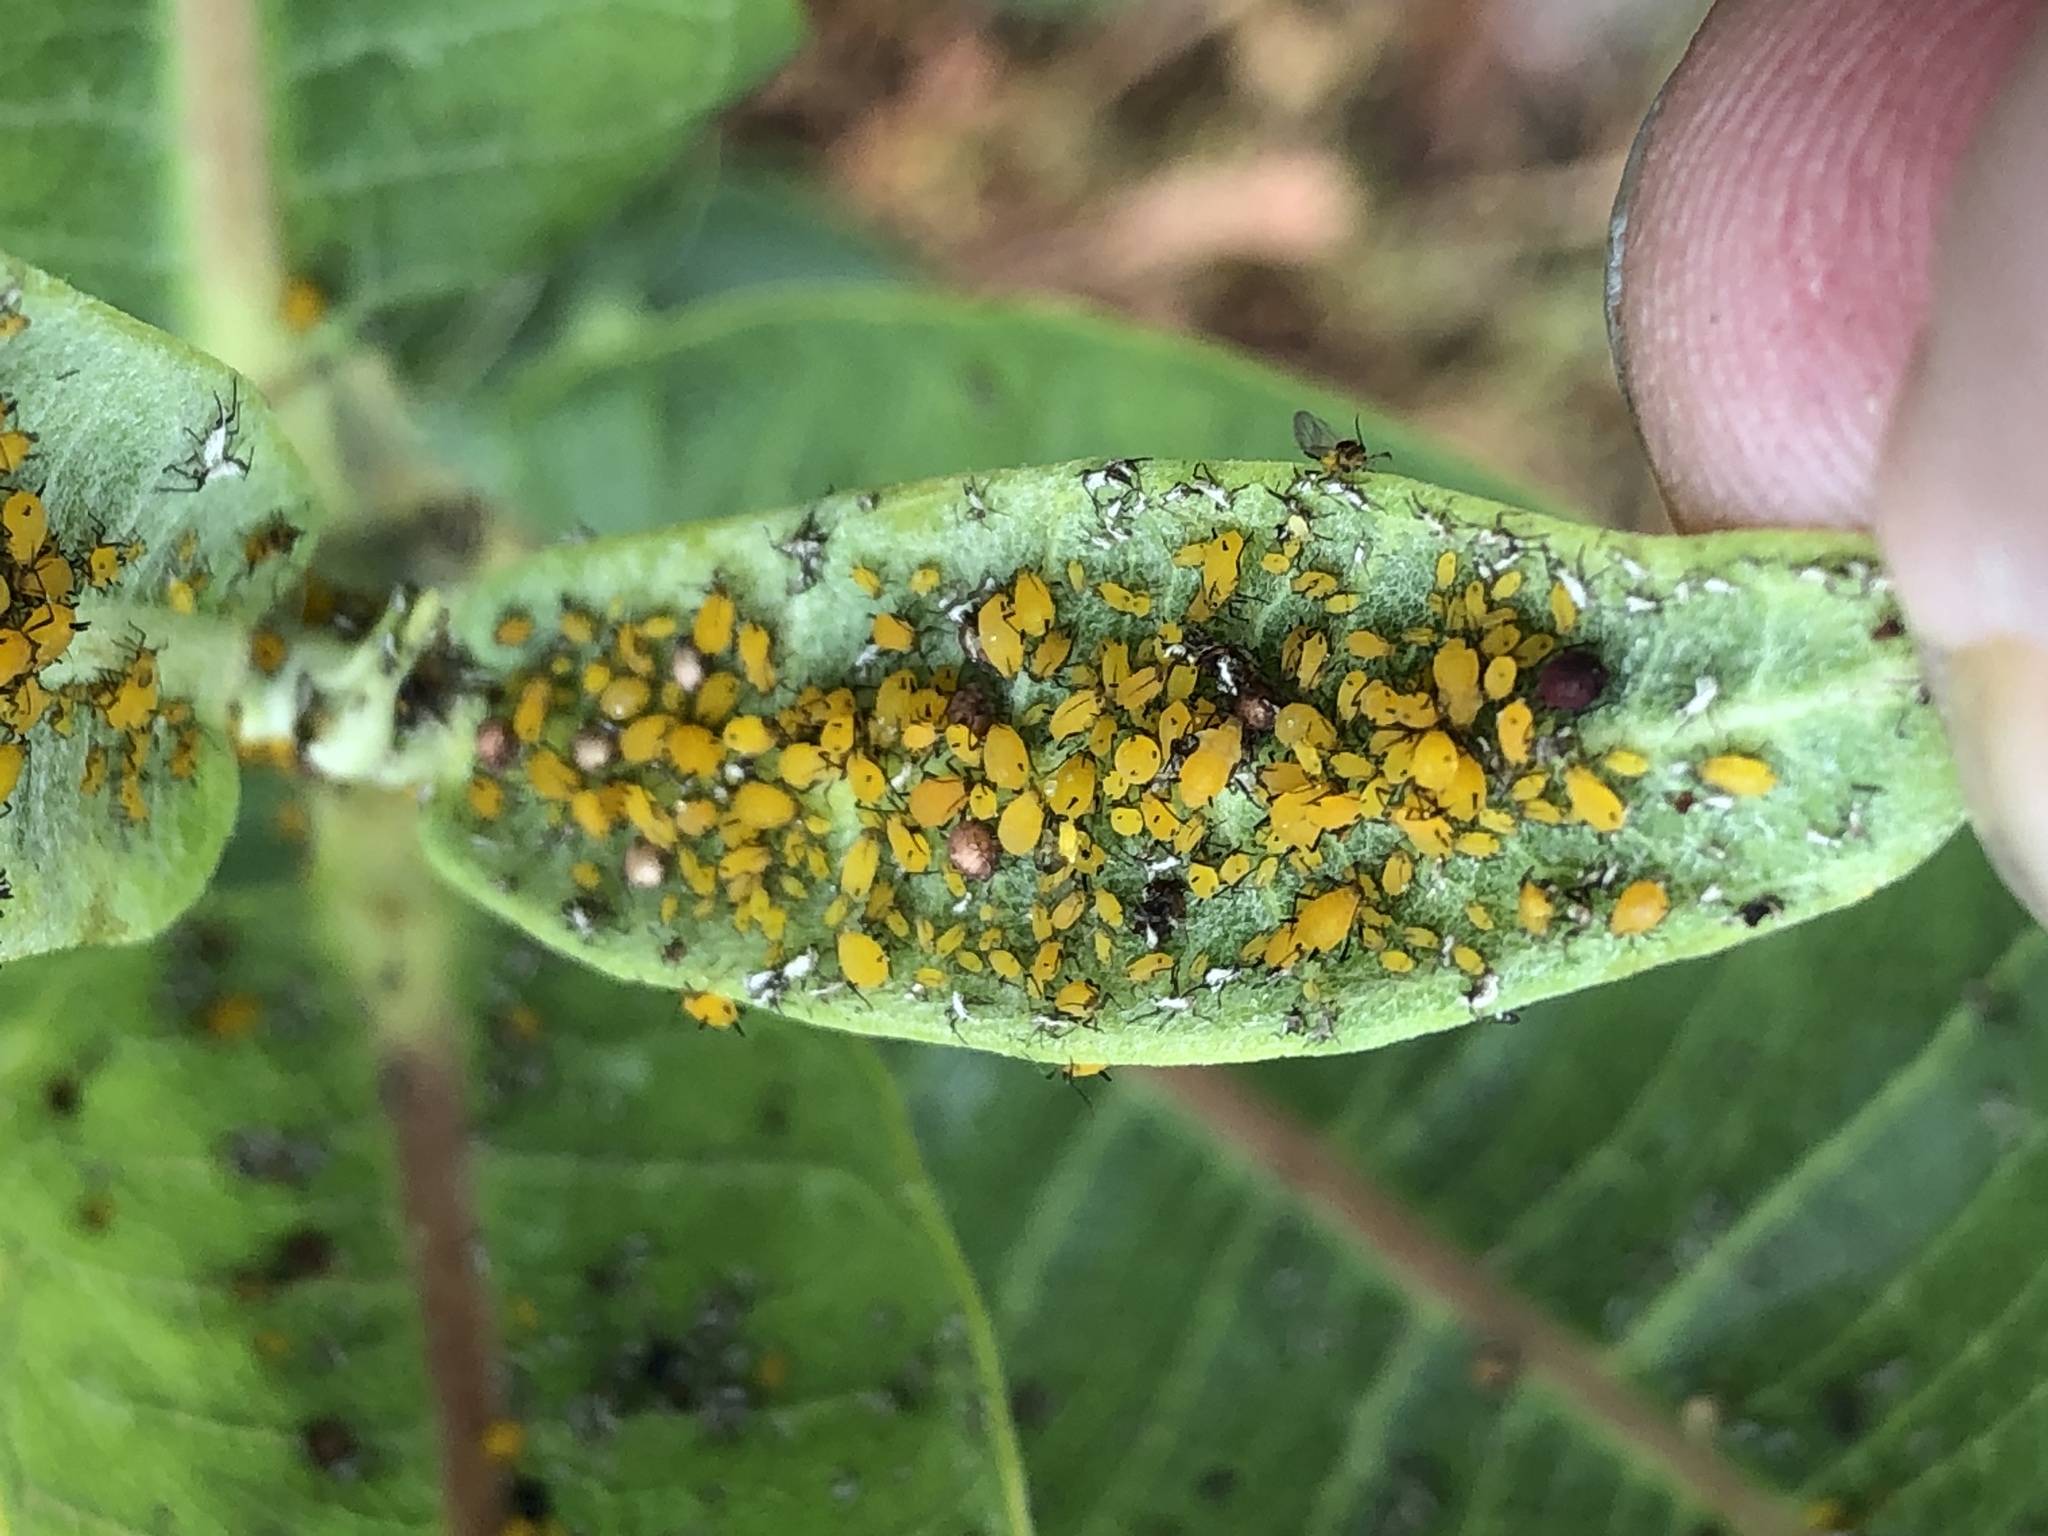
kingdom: Animalia
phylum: Arthropoda
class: Insecta
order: Hemiptera
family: Aphididae
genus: Aphis
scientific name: Aphis nerii
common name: Oleander aphid
